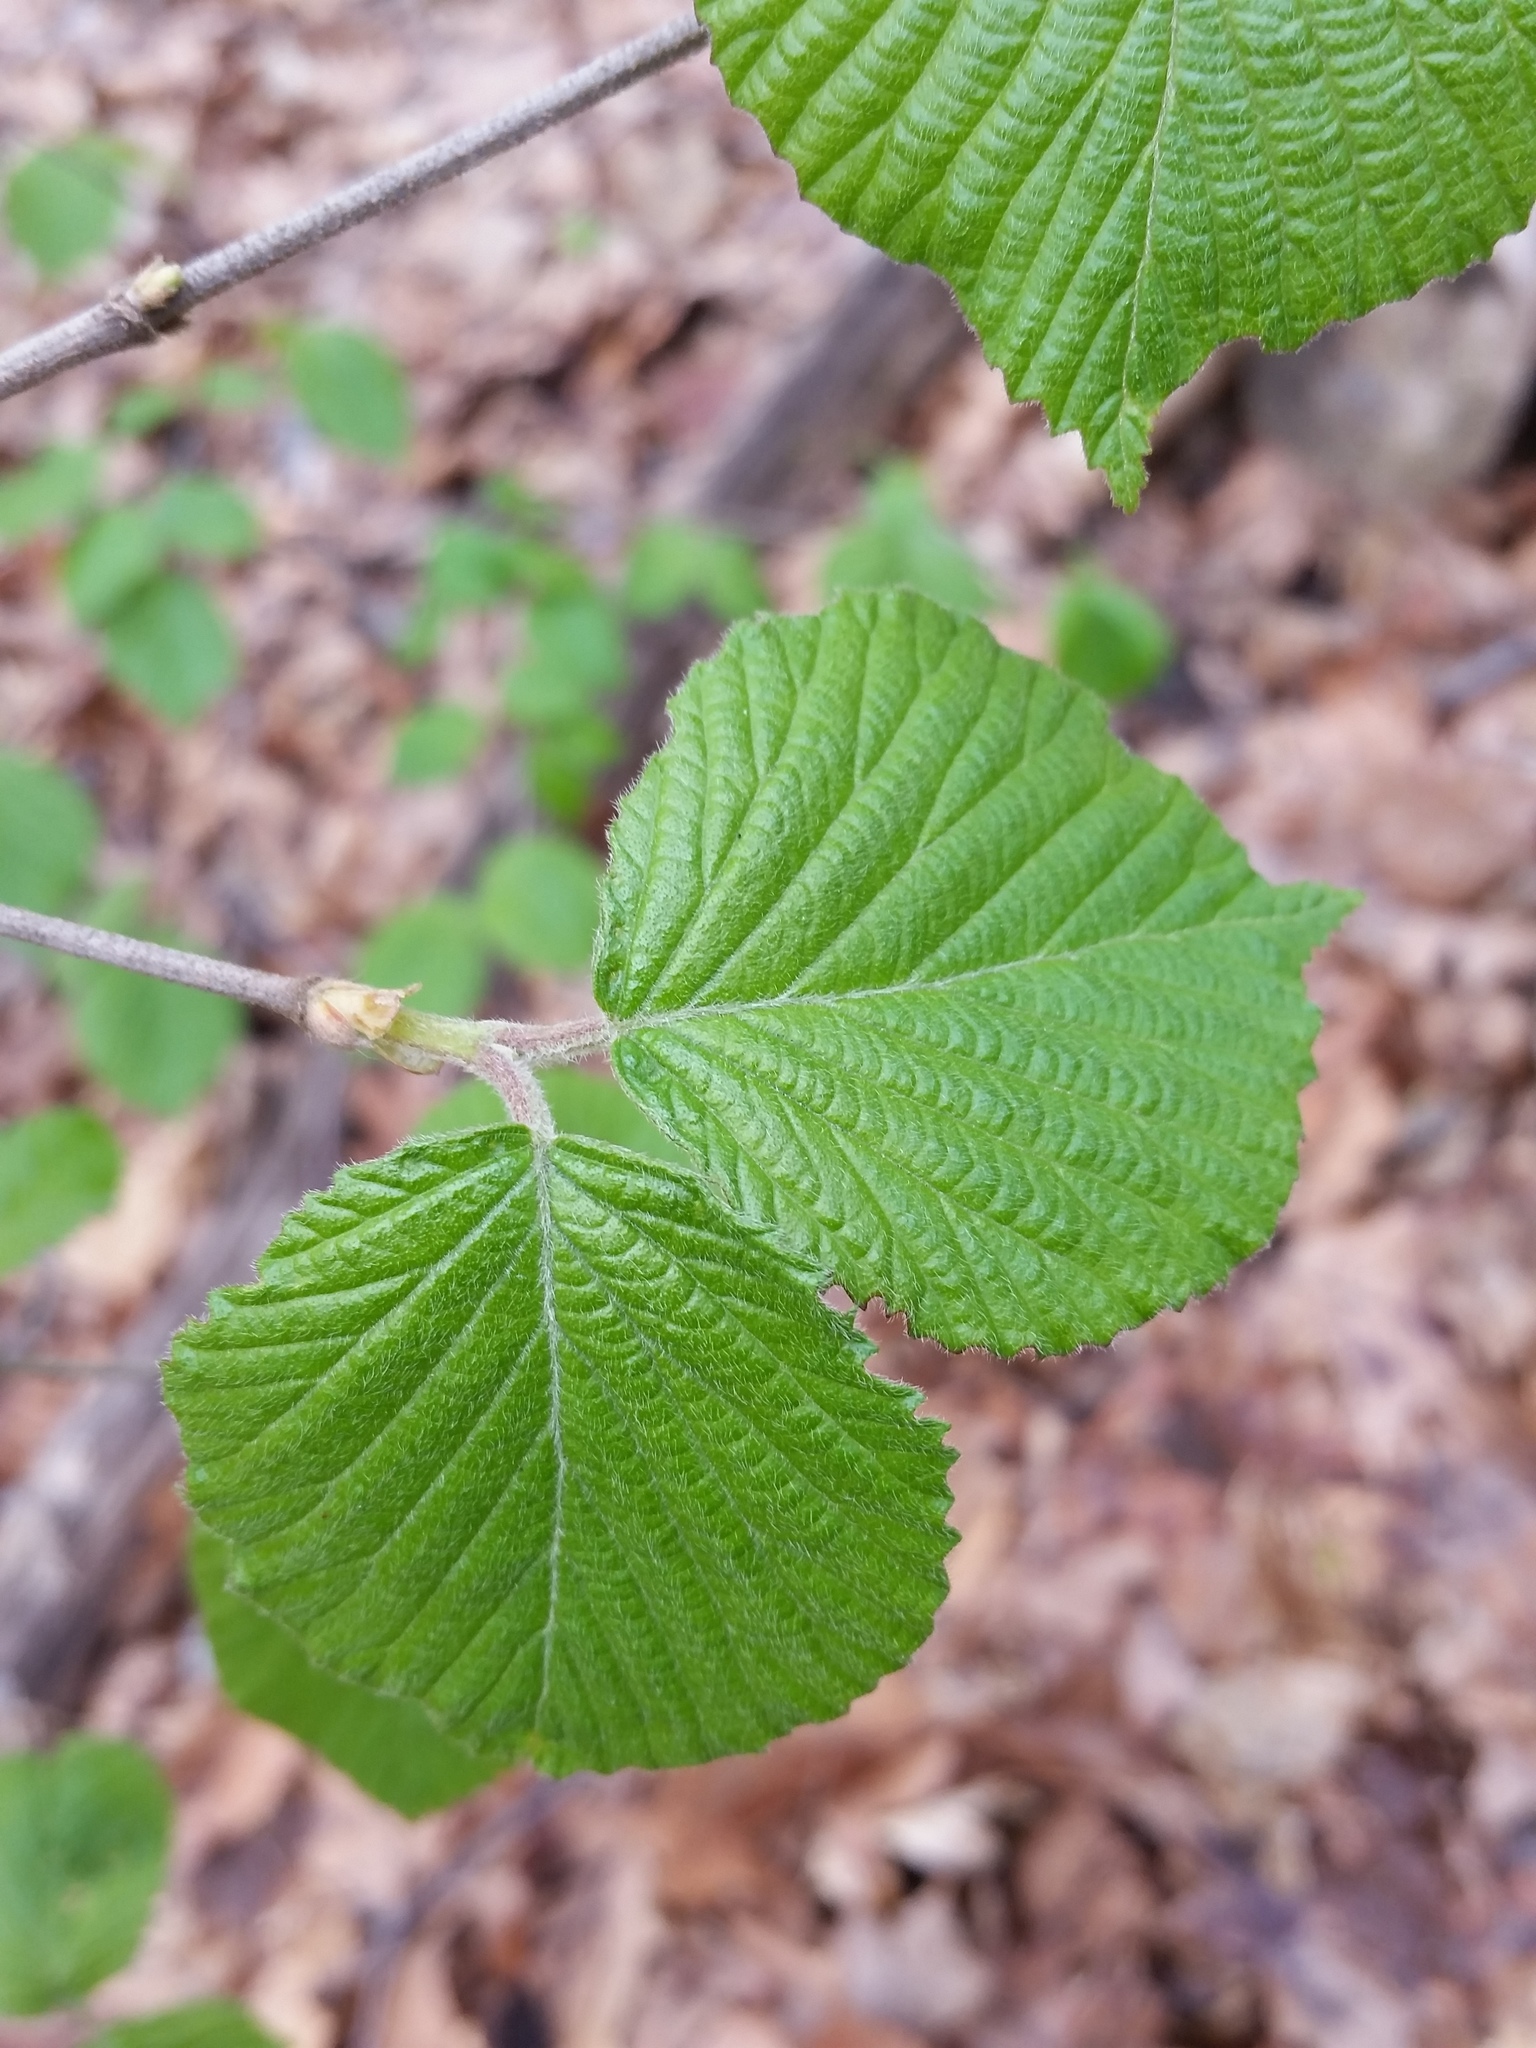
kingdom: Plantae
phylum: Tracheophyta
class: Magnoliopsida
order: Dipsacales
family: Viburnaceae
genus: Viburnum
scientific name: Viburnum dilatatum
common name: Linden arrowwood
